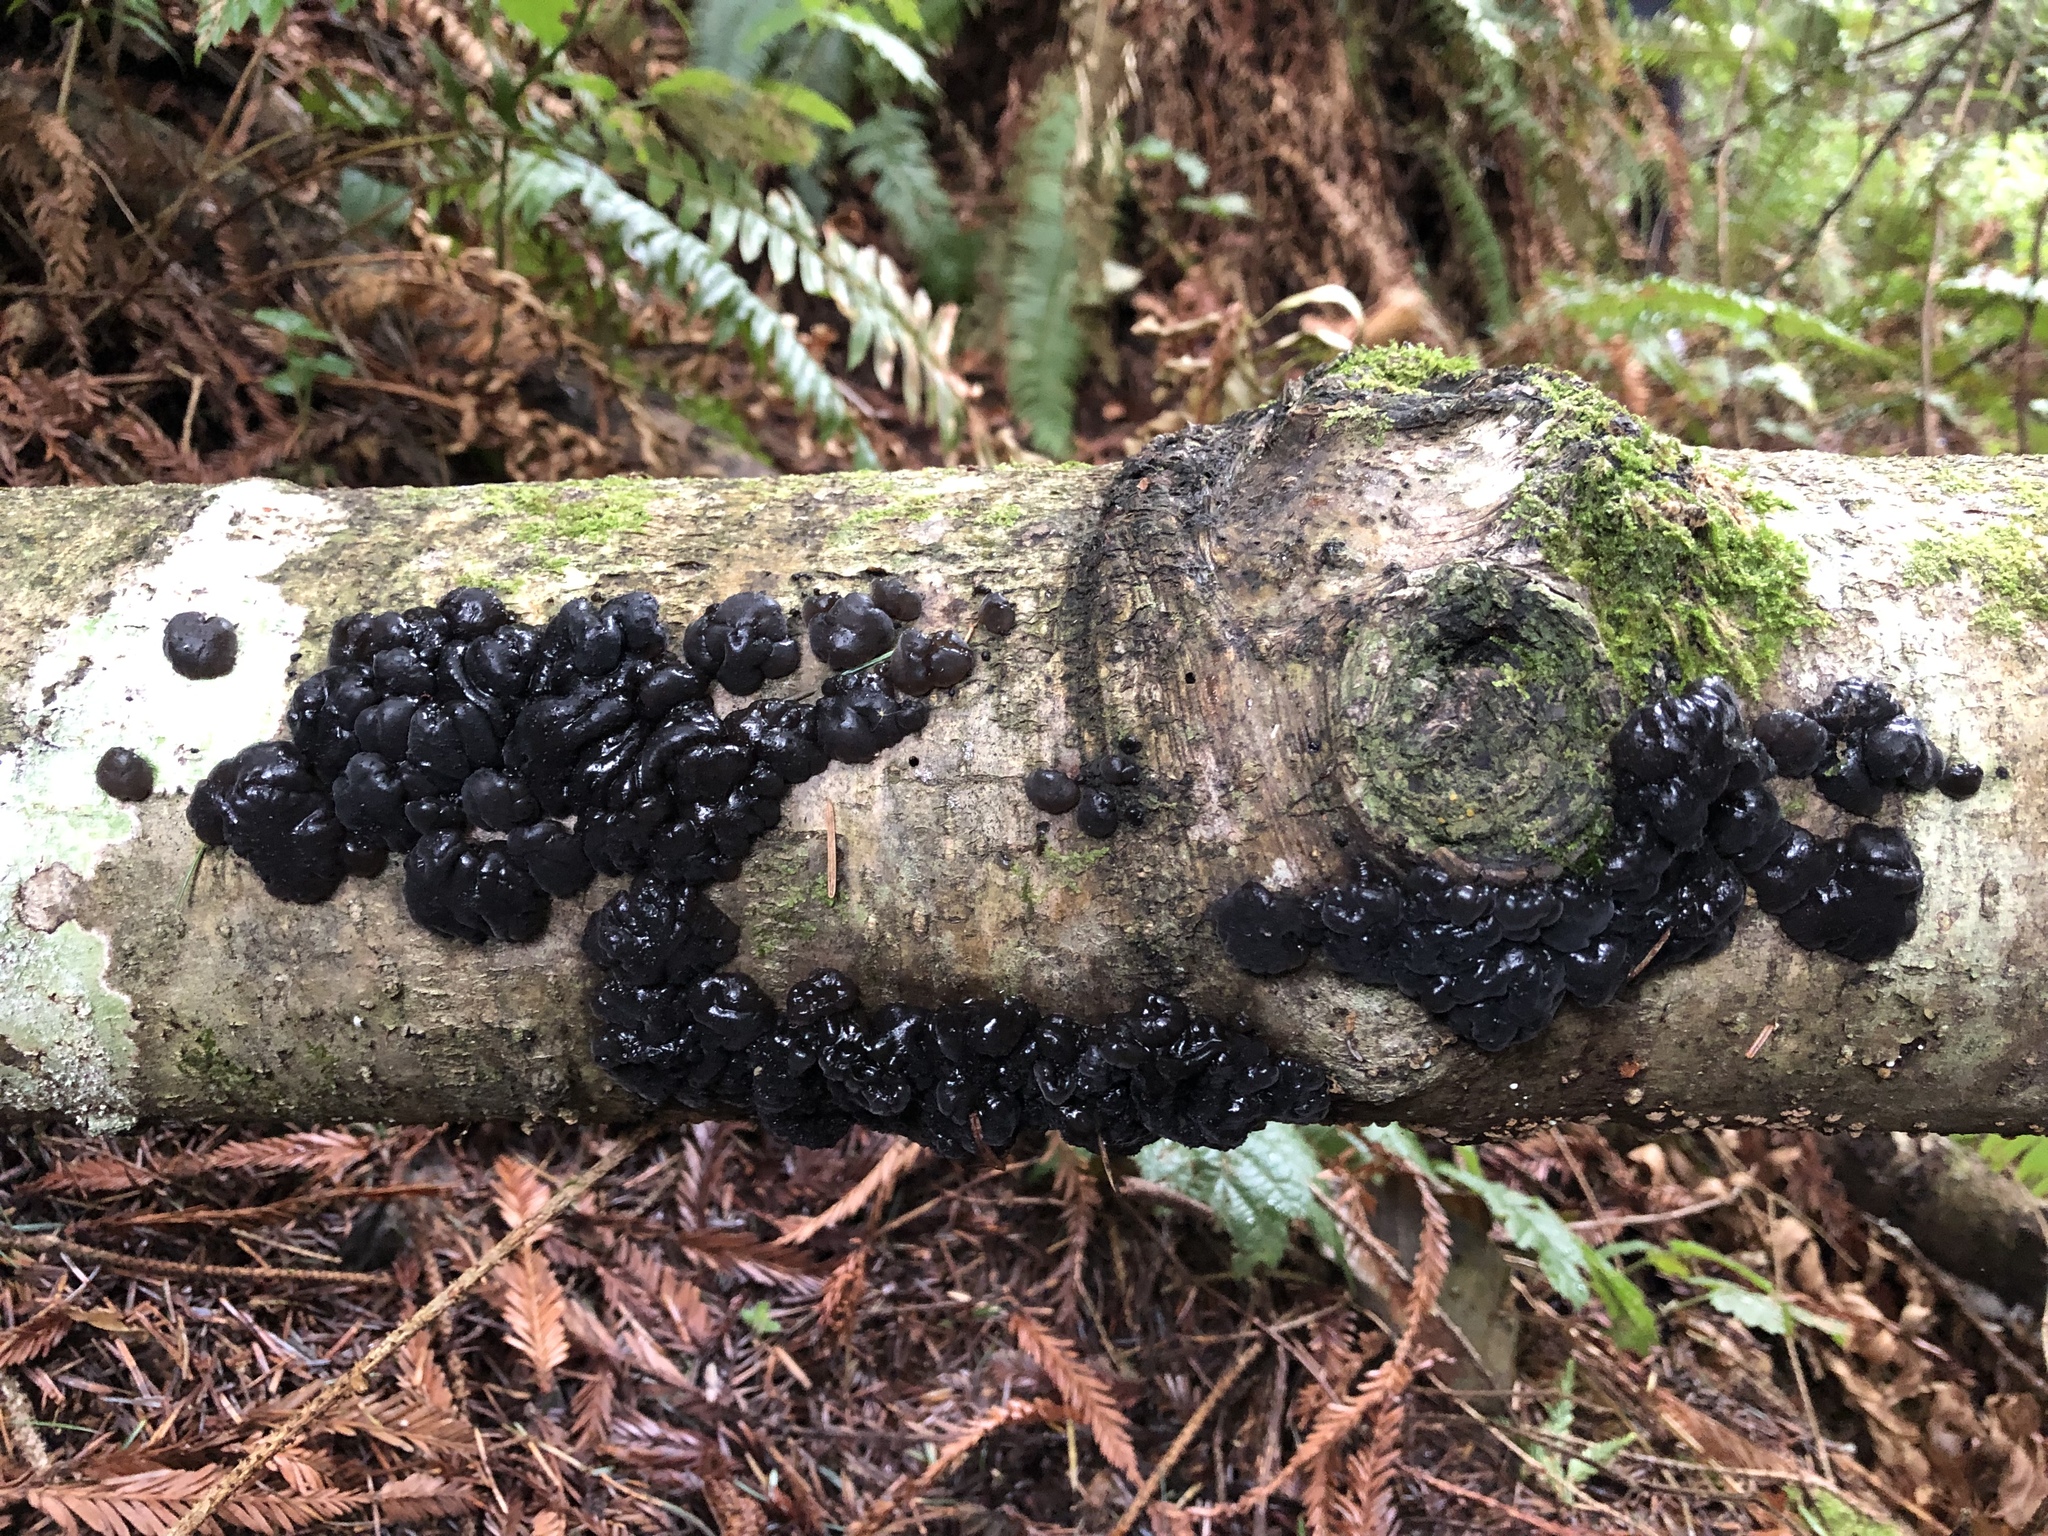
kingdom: Fungi
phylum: Basidiomycota
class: Agaricomycetes
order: Auriculariales
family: Auriculariaceae
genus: Exidia
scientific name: Exidia glandulosa
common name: Witches' butter
